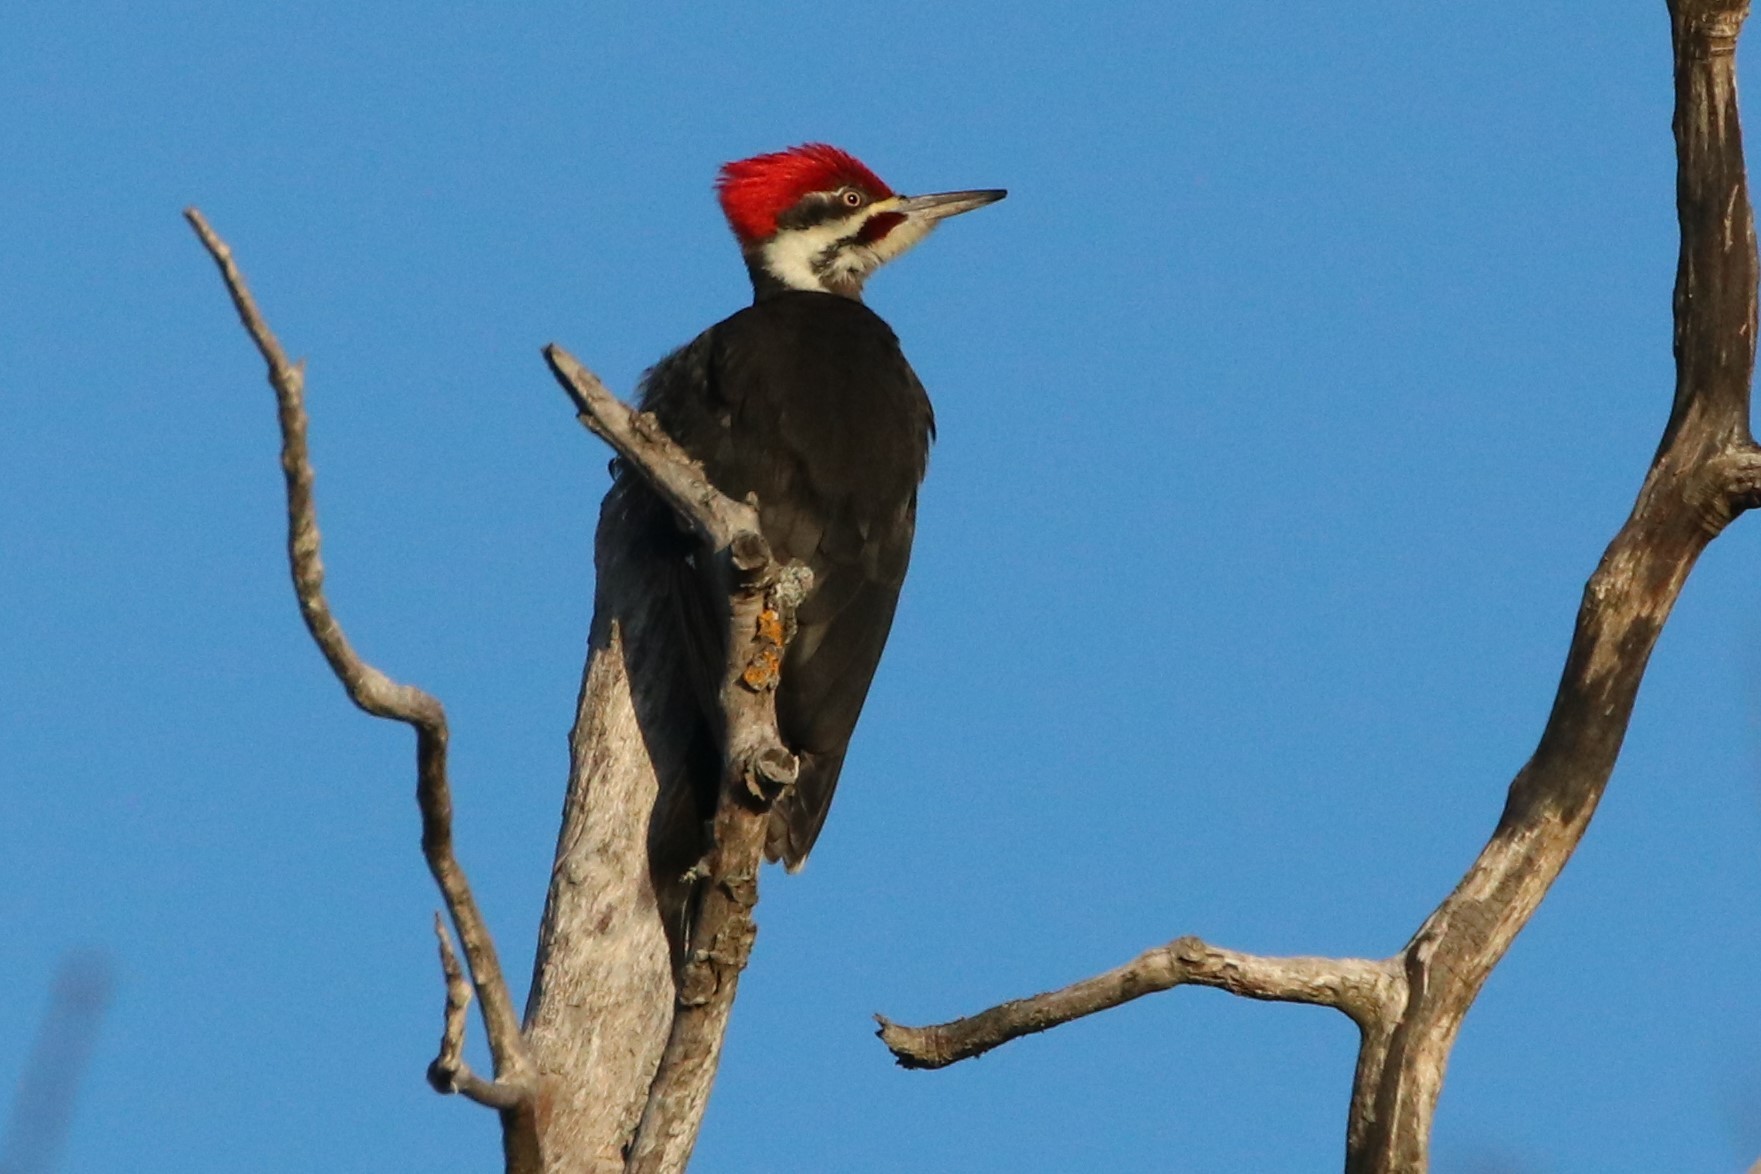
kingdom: Animalia
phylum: Chordata
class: Aves
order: Piciformes
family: Picidae
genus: Dryocopus
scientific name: Dryocopus pileatus
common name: Pileated woodpecker
